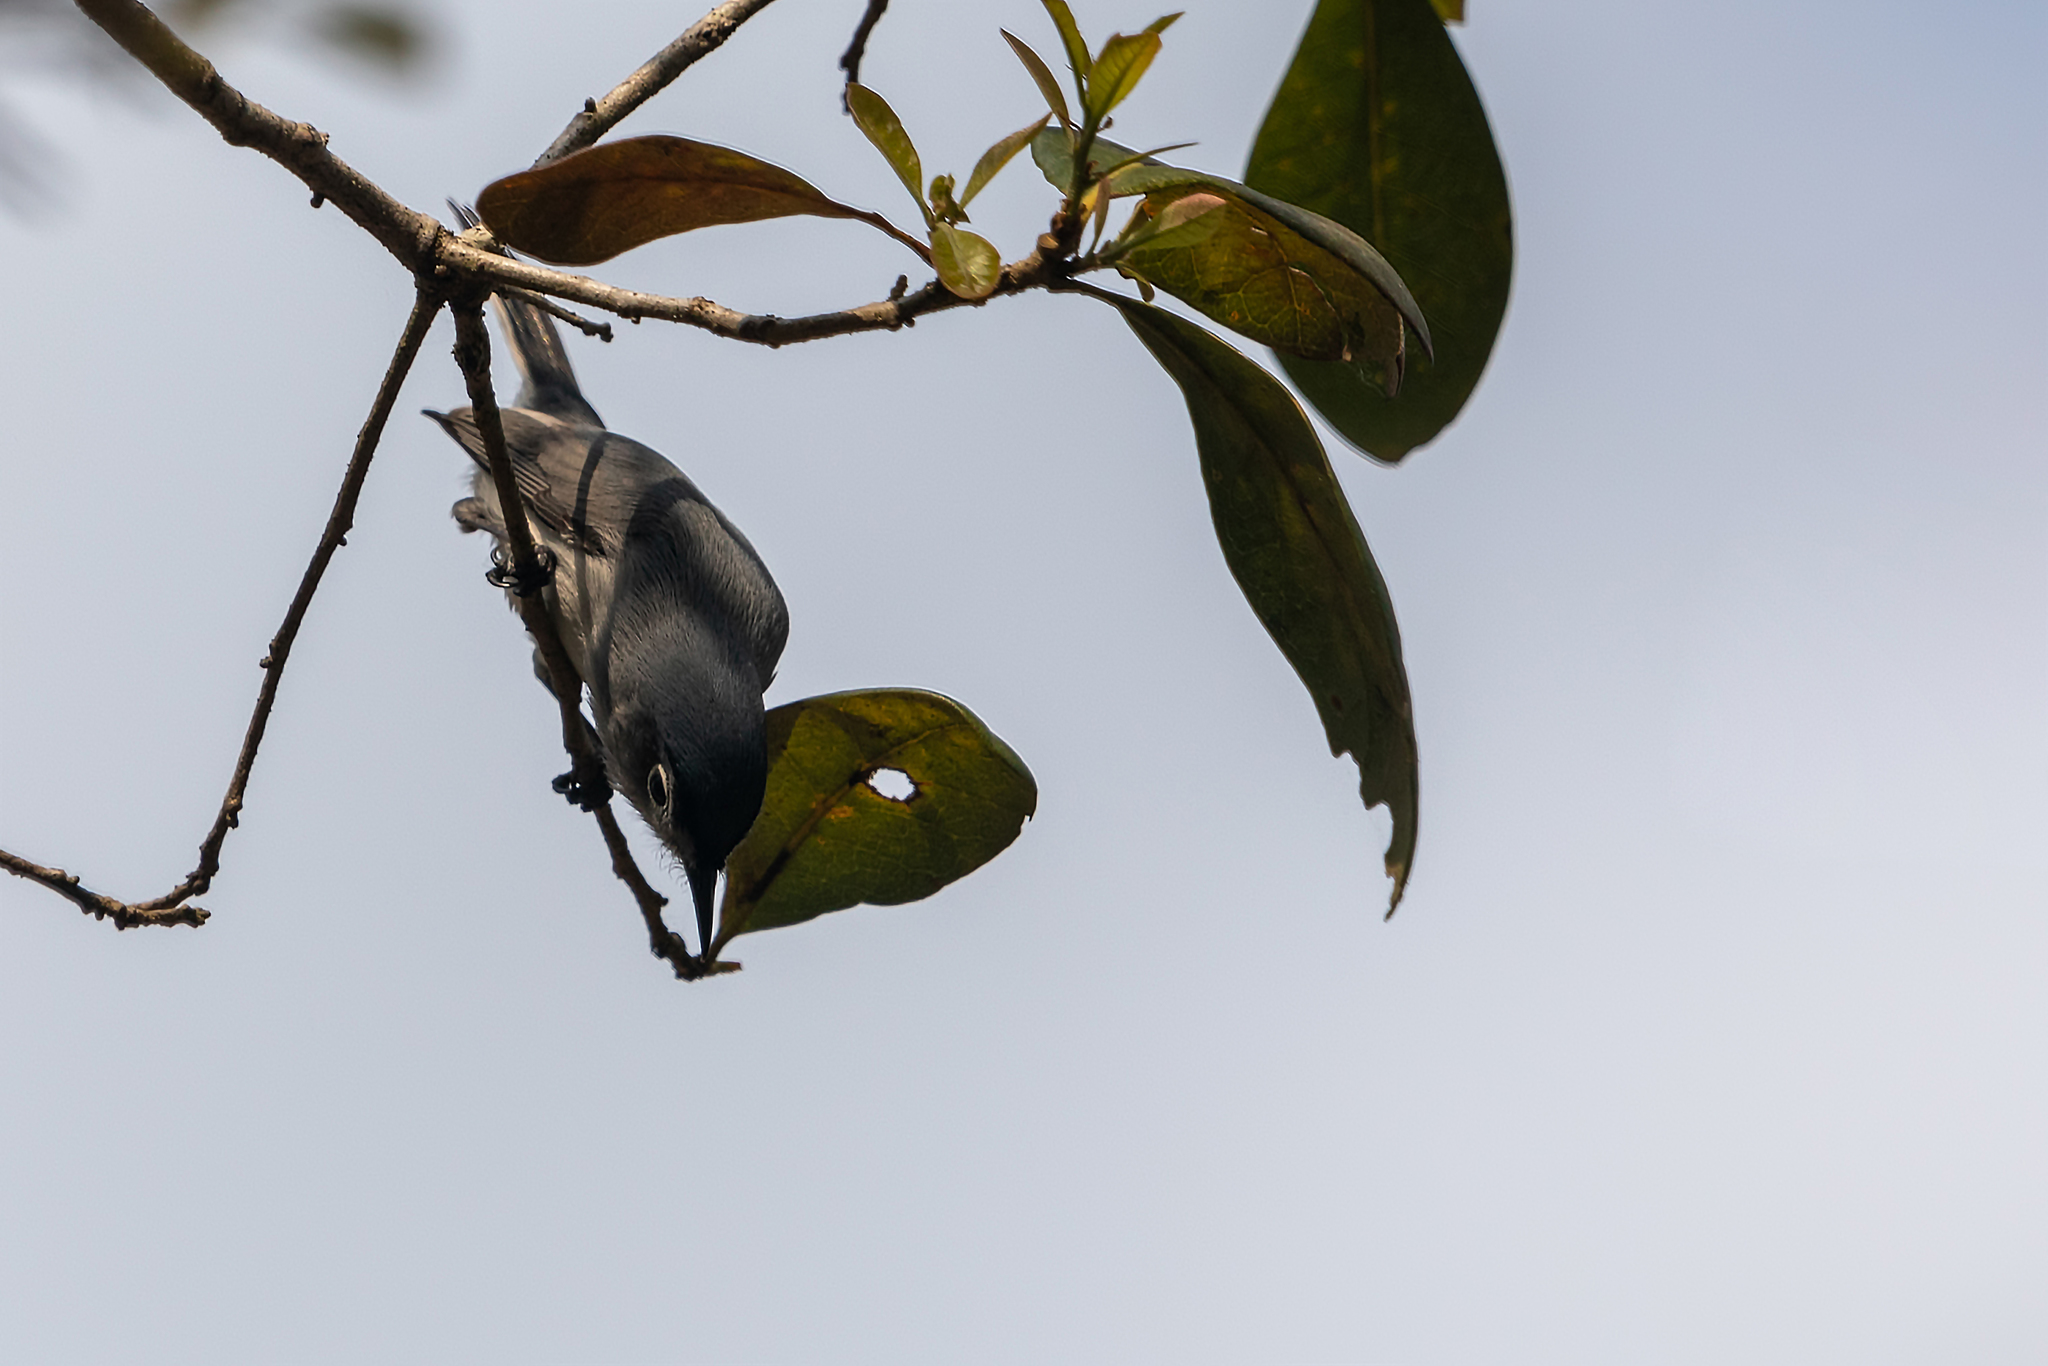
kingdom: Animalia
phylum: Chordata
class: Aves
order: Passeriformes
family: Polioptilidae
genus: Polioptila
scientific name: Polioptila caerulea
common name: Blue-gray gnatcatcher
